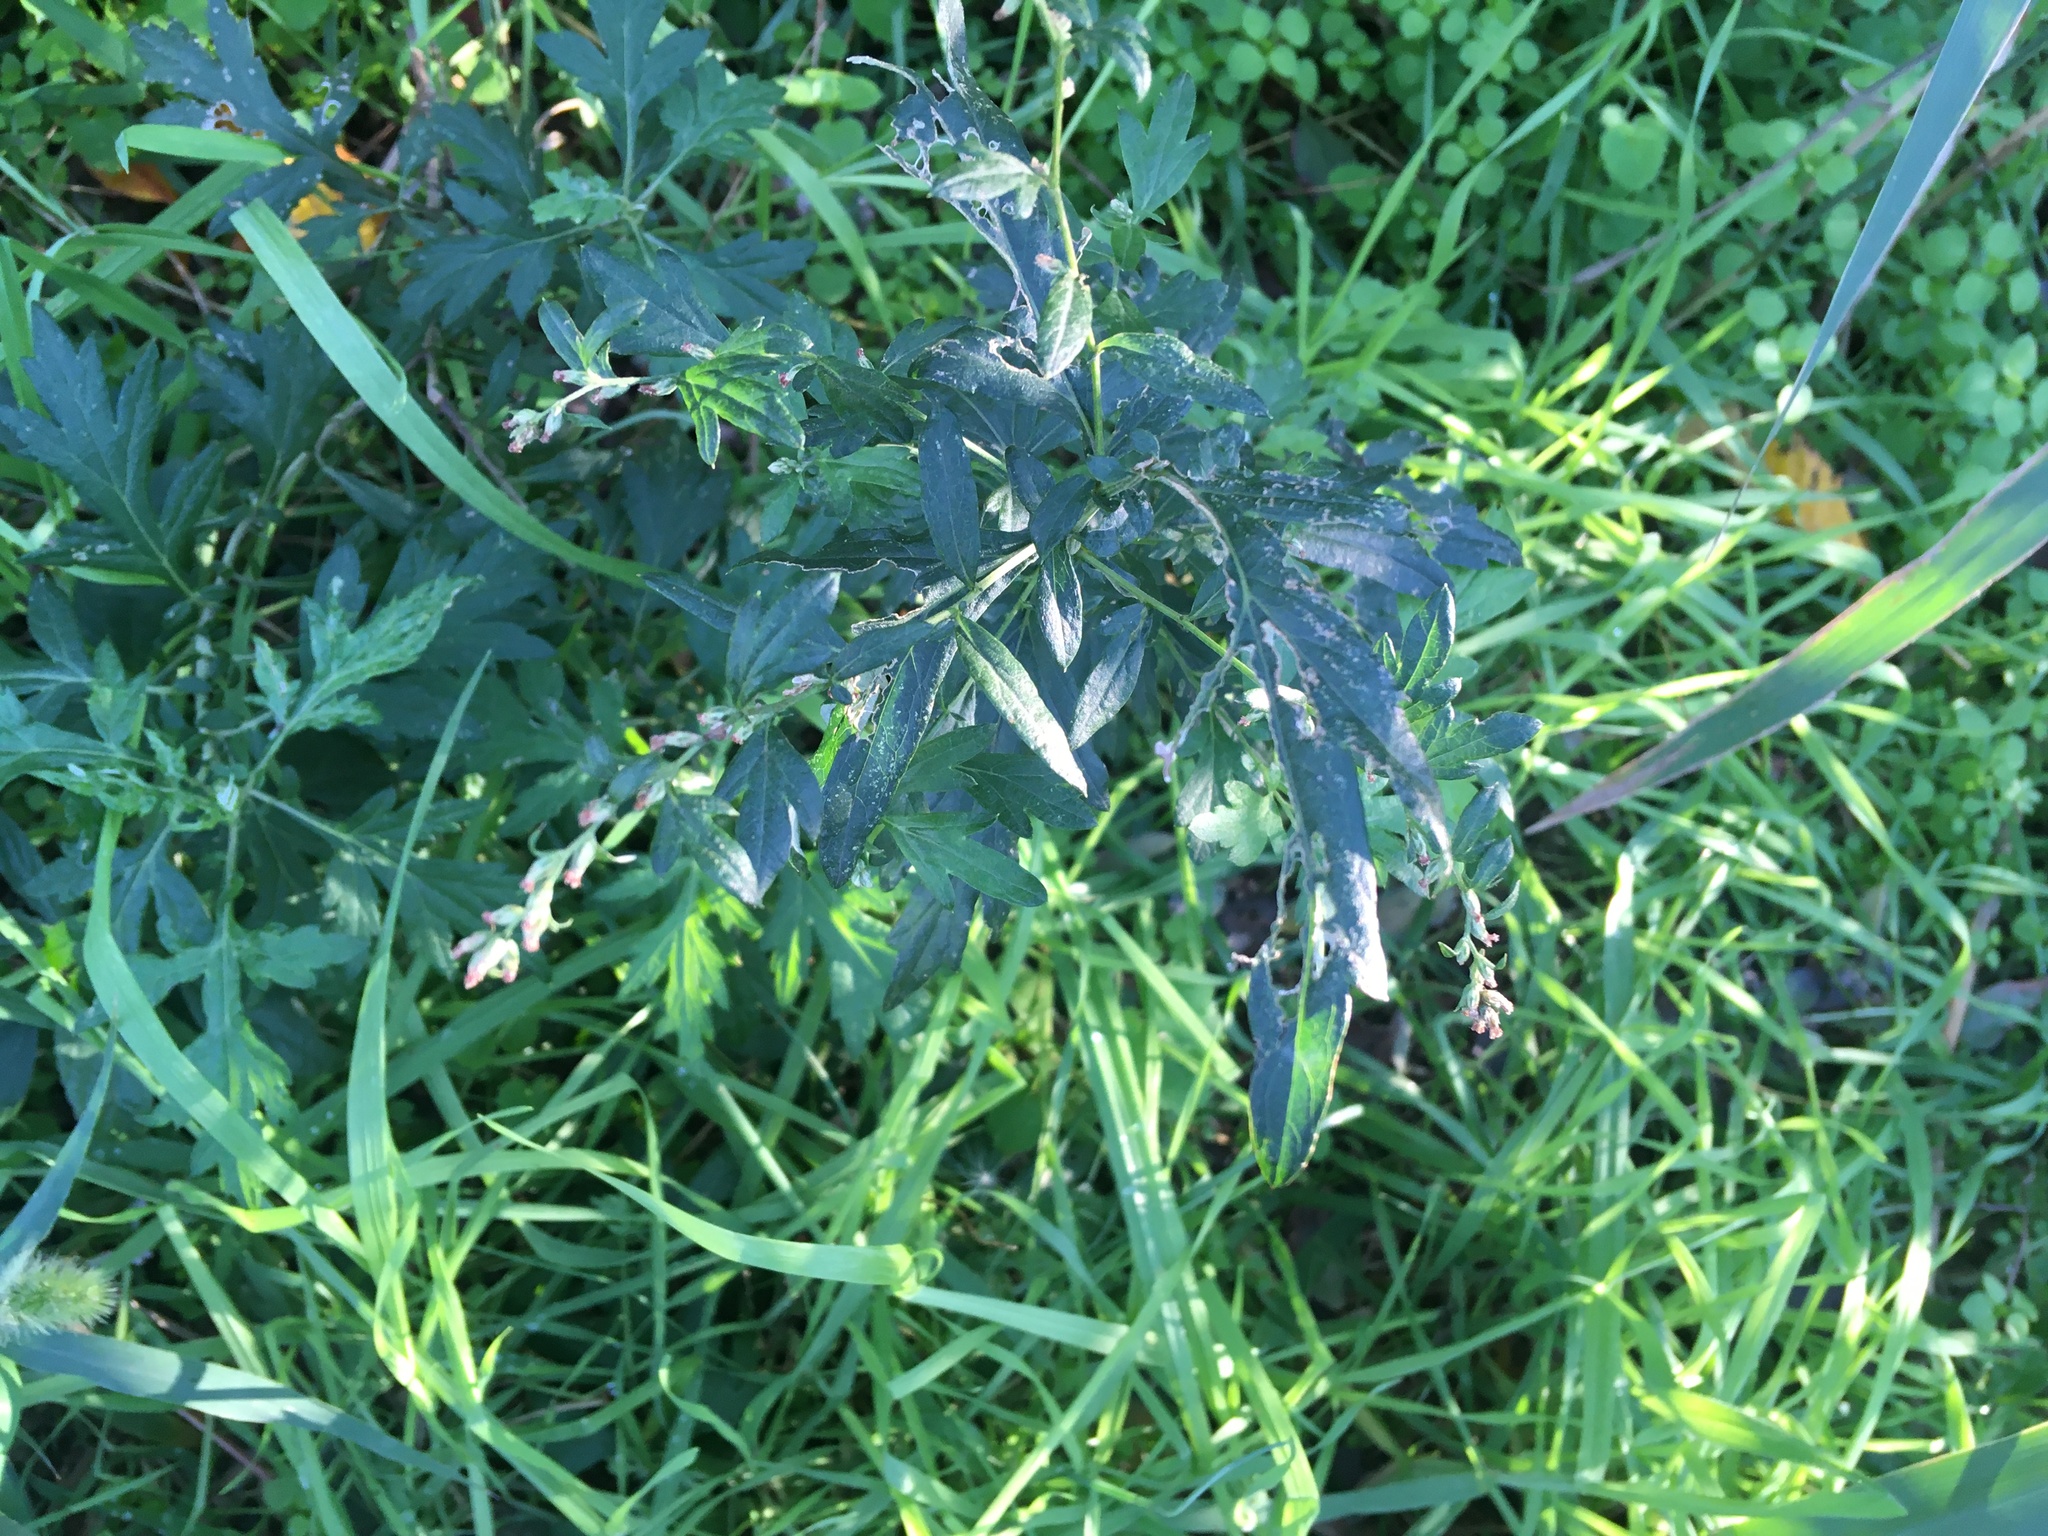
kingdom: Plantae
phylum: Tracheophyta
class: Magnoliopsida
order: Asterales
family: Asteraceae
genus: Artemisia
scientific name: Artemisia vulgaris
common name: Mugwort
